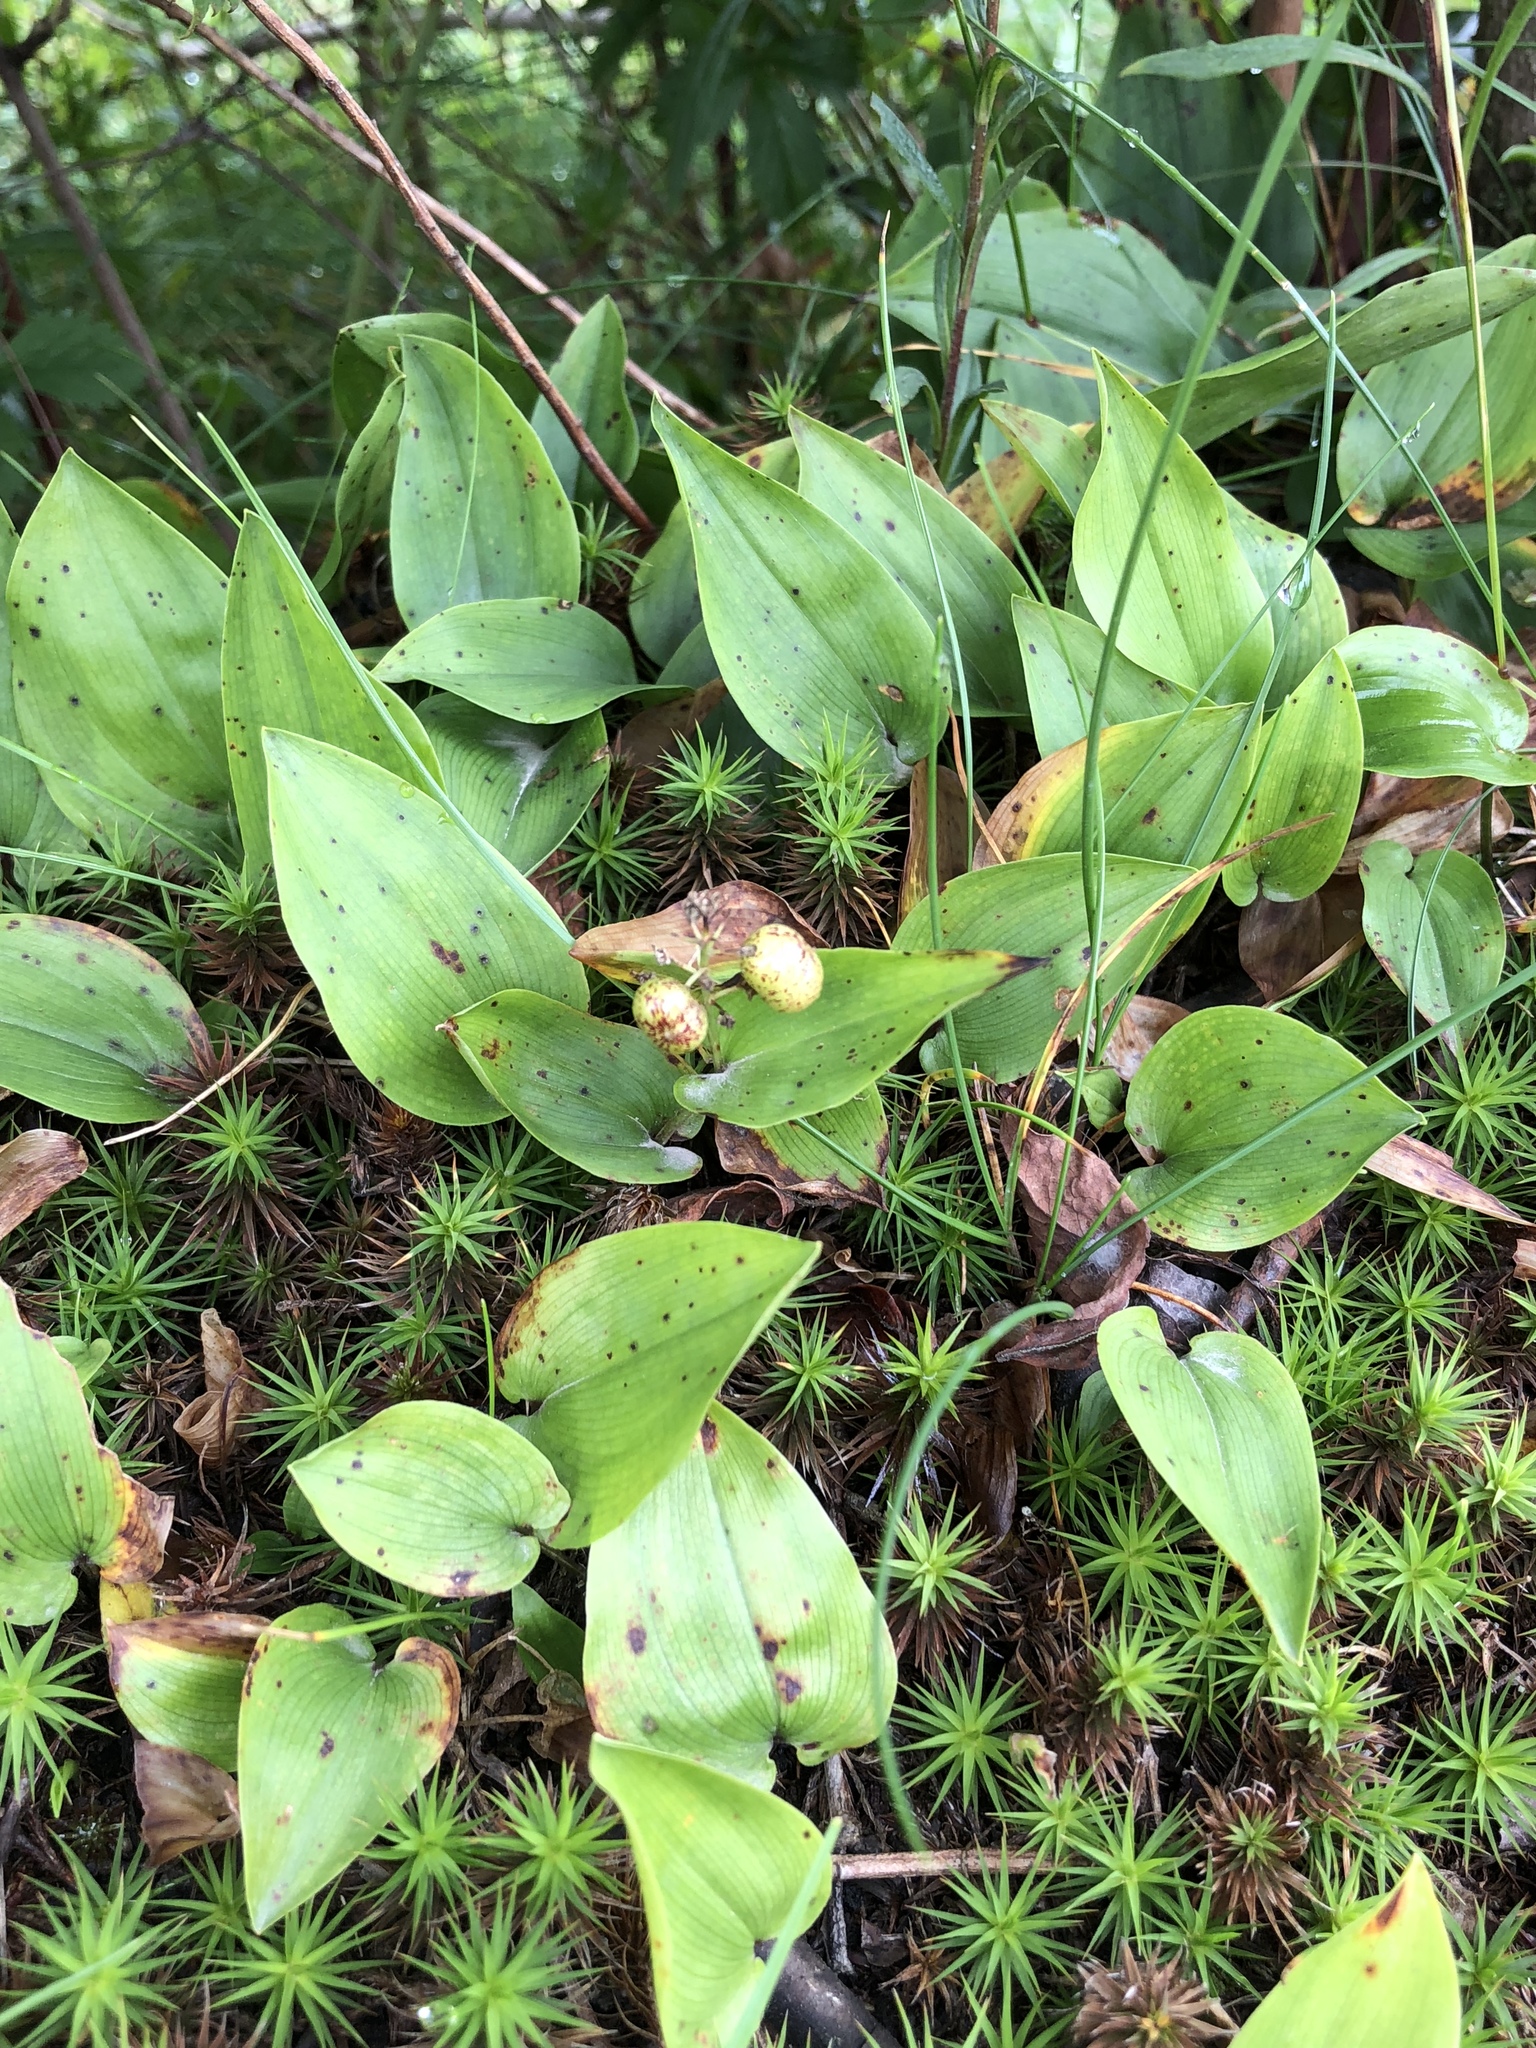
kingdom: Plantae
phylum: Tracheophyta
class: Liliopsida
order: Asparagales
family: Asparagaceae
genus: Maianthemum
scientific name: Maianthemum canadense
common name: False lily-of-the-valley
